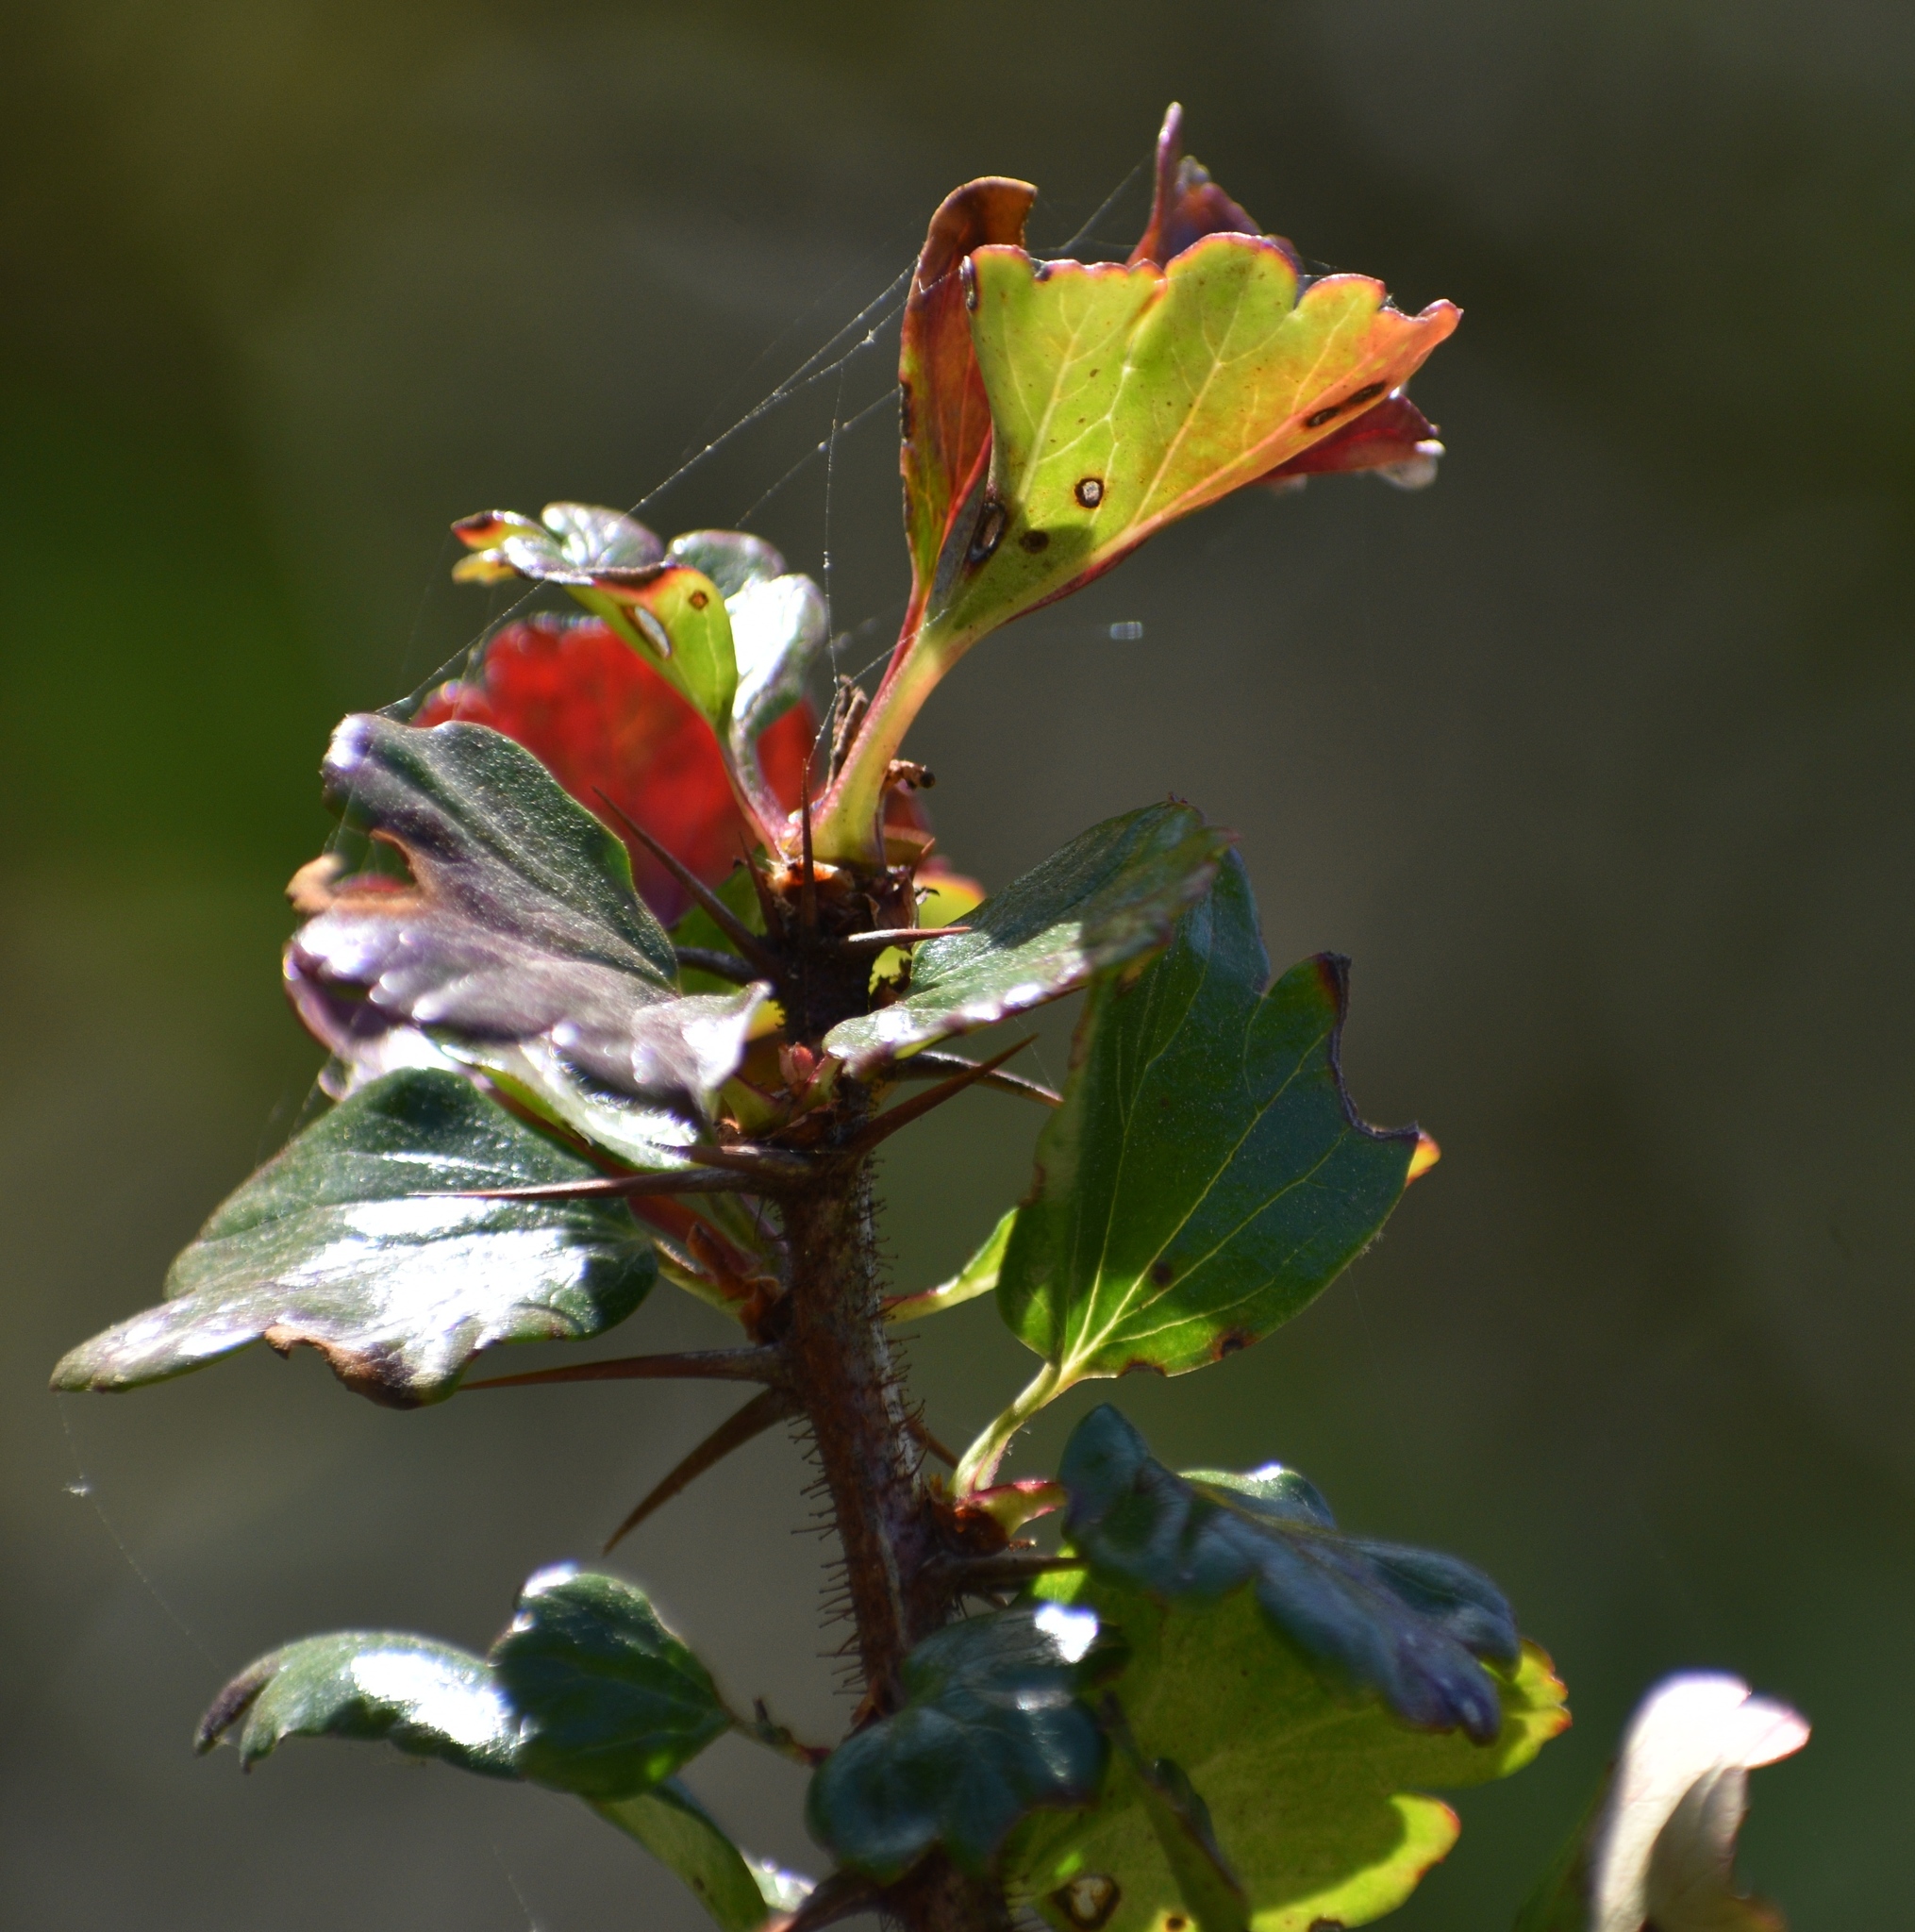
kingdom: Plantae
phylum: Tracheophyta
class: Magnoliopsida
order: Saxifragales
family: Grossulariaceae
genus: Ribes
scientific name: Ribes speciosum
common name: Fuchsia-flower gooseberry
